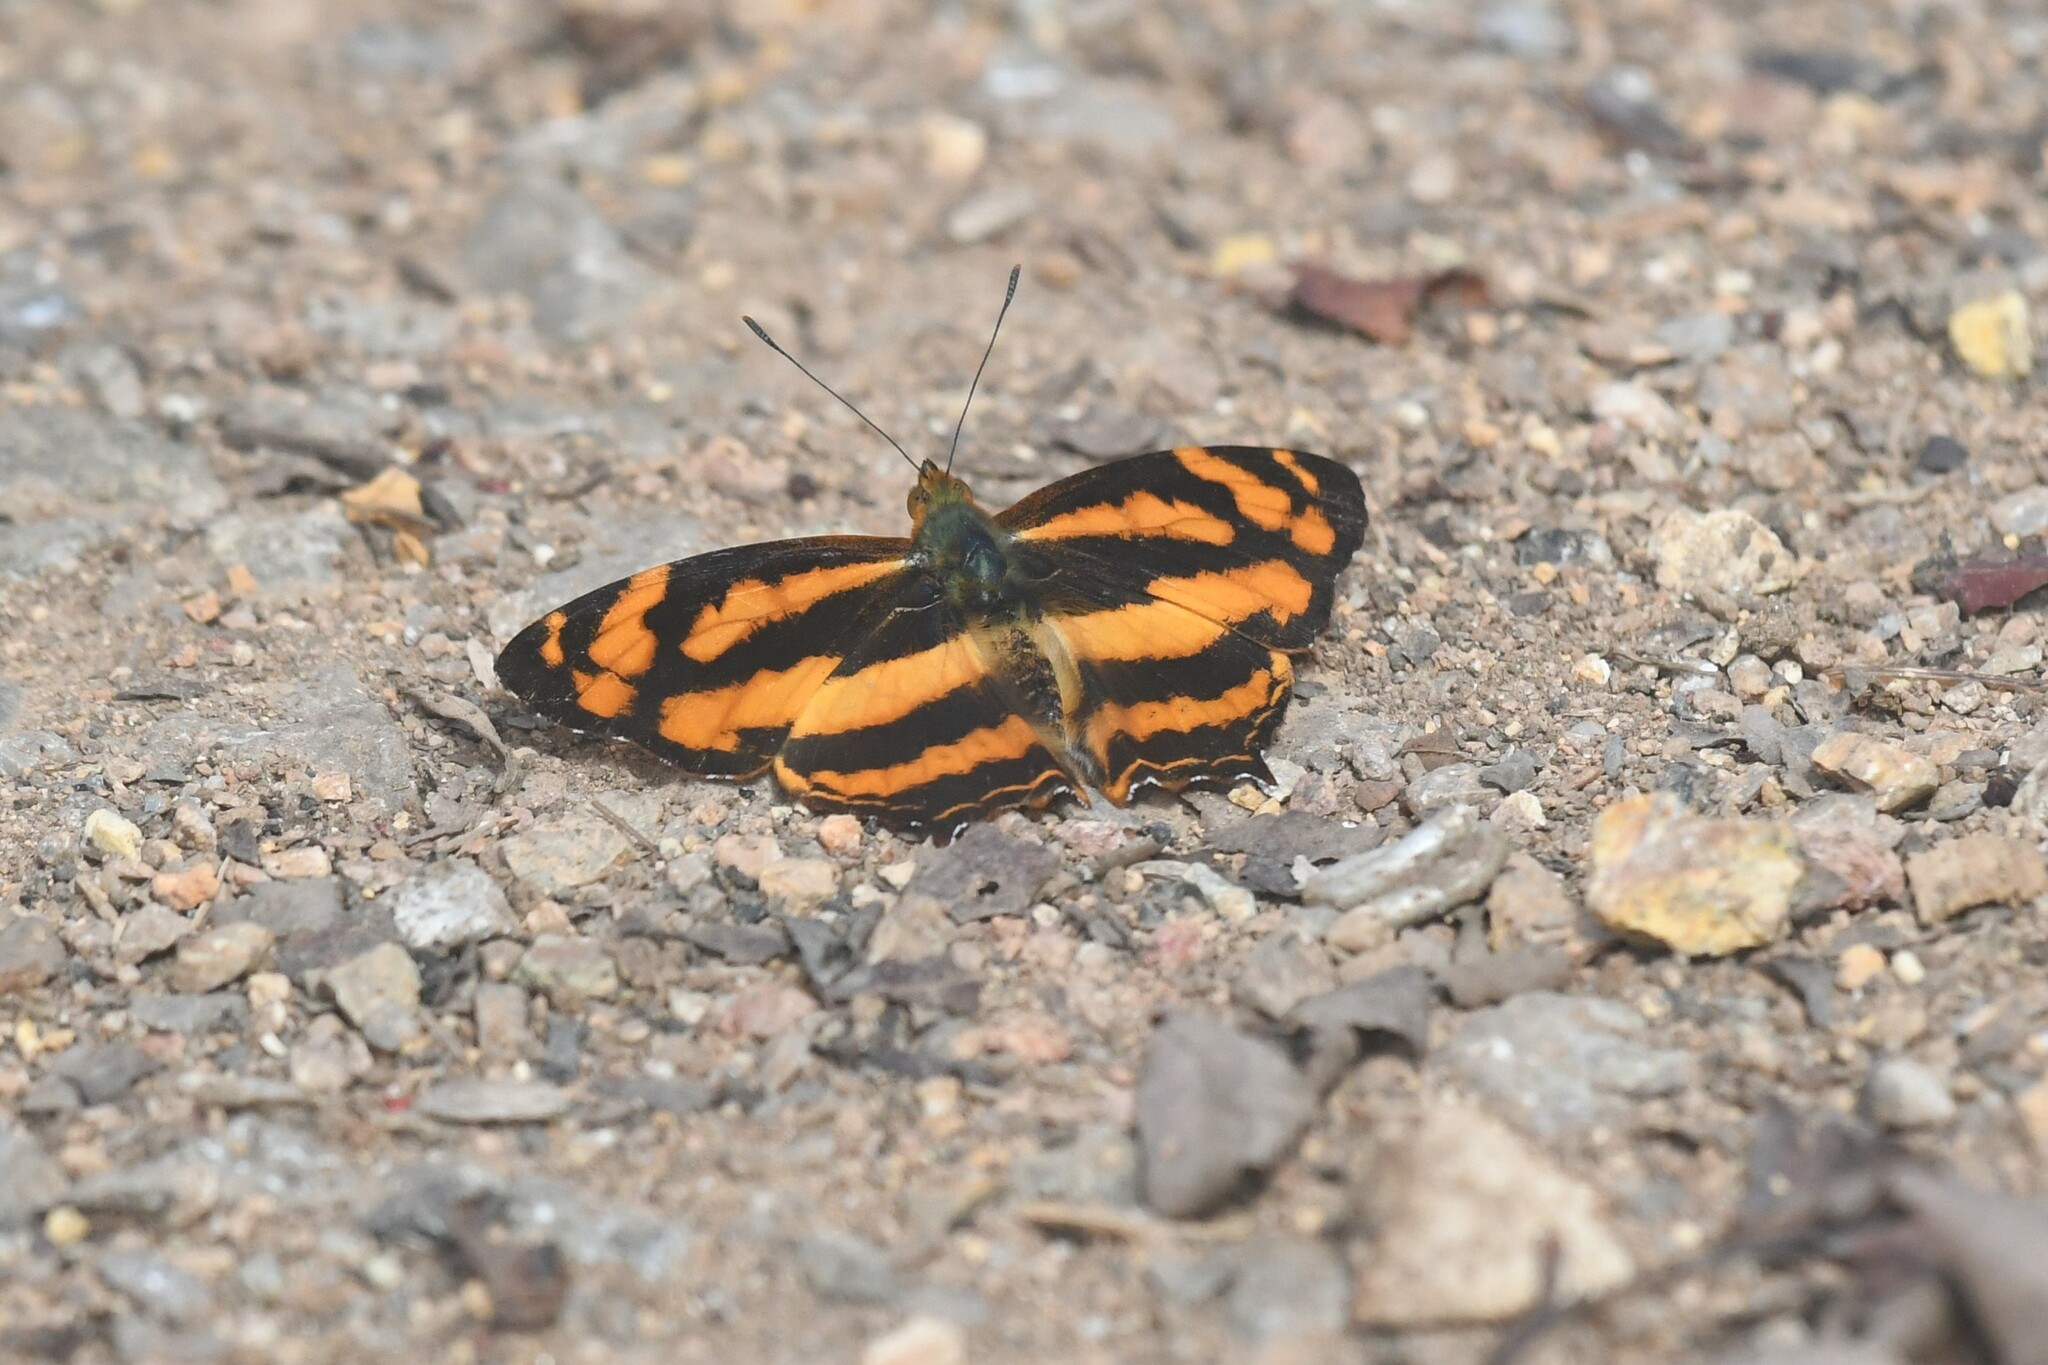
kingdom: Animalia
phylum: Arthropoda
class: Insecta
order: Lepidoptera
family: Nymphalidae
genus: Symbrenthia
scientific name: Symbrenthia hypselis
